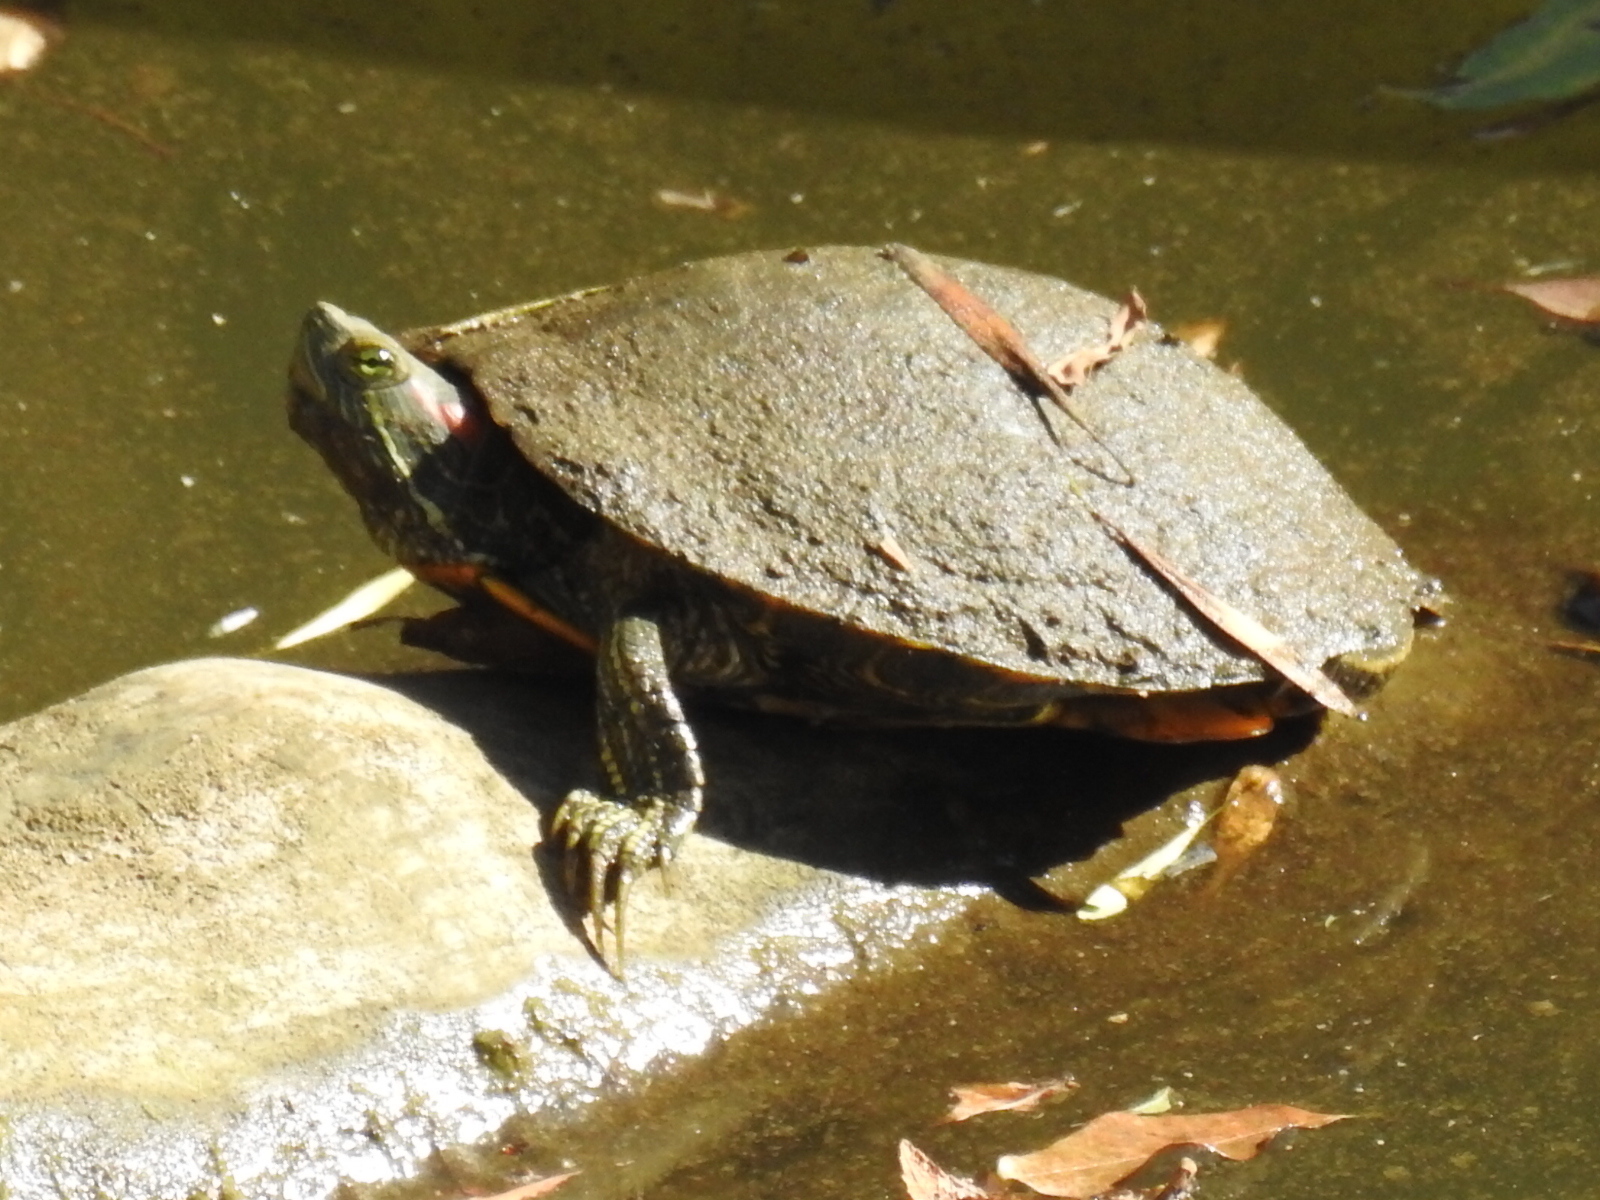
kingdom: Animalia
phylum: Chordata
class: Testudines
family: Emydidae
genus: Trachemys
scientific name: Trachemys scripta
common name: Slider
